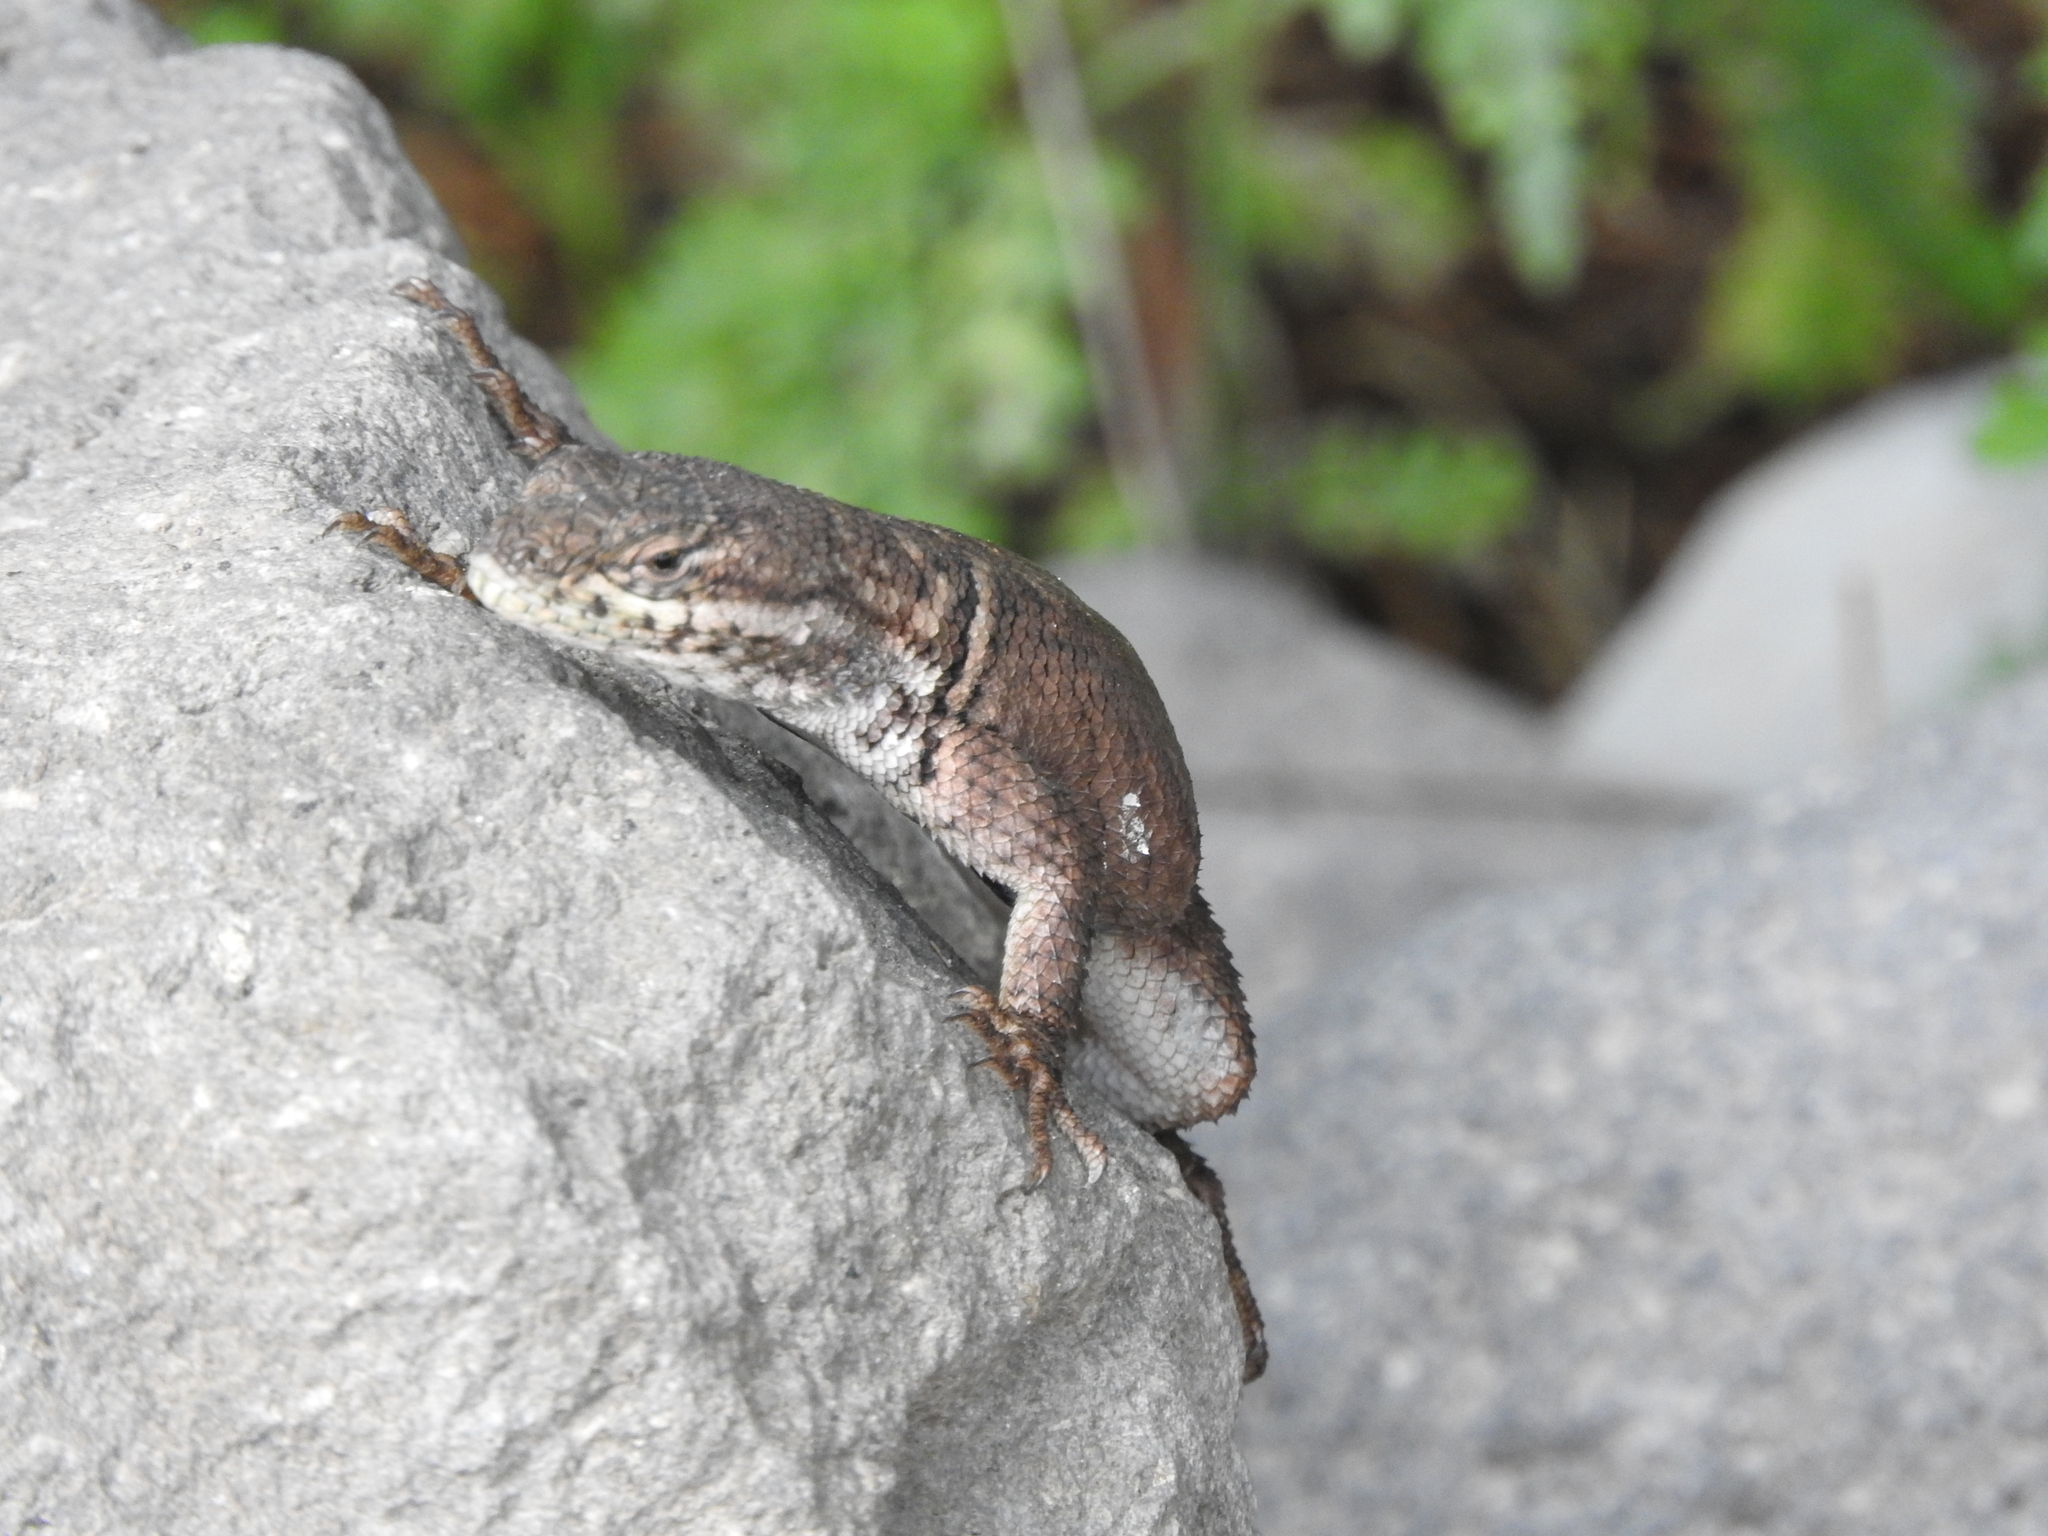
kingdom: Animalia
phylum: Chordata
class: Squamata
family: Phrynosomatidae
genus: Sceloporus
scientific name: Sceloporus dugesii
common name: Duges' spiny lizard
